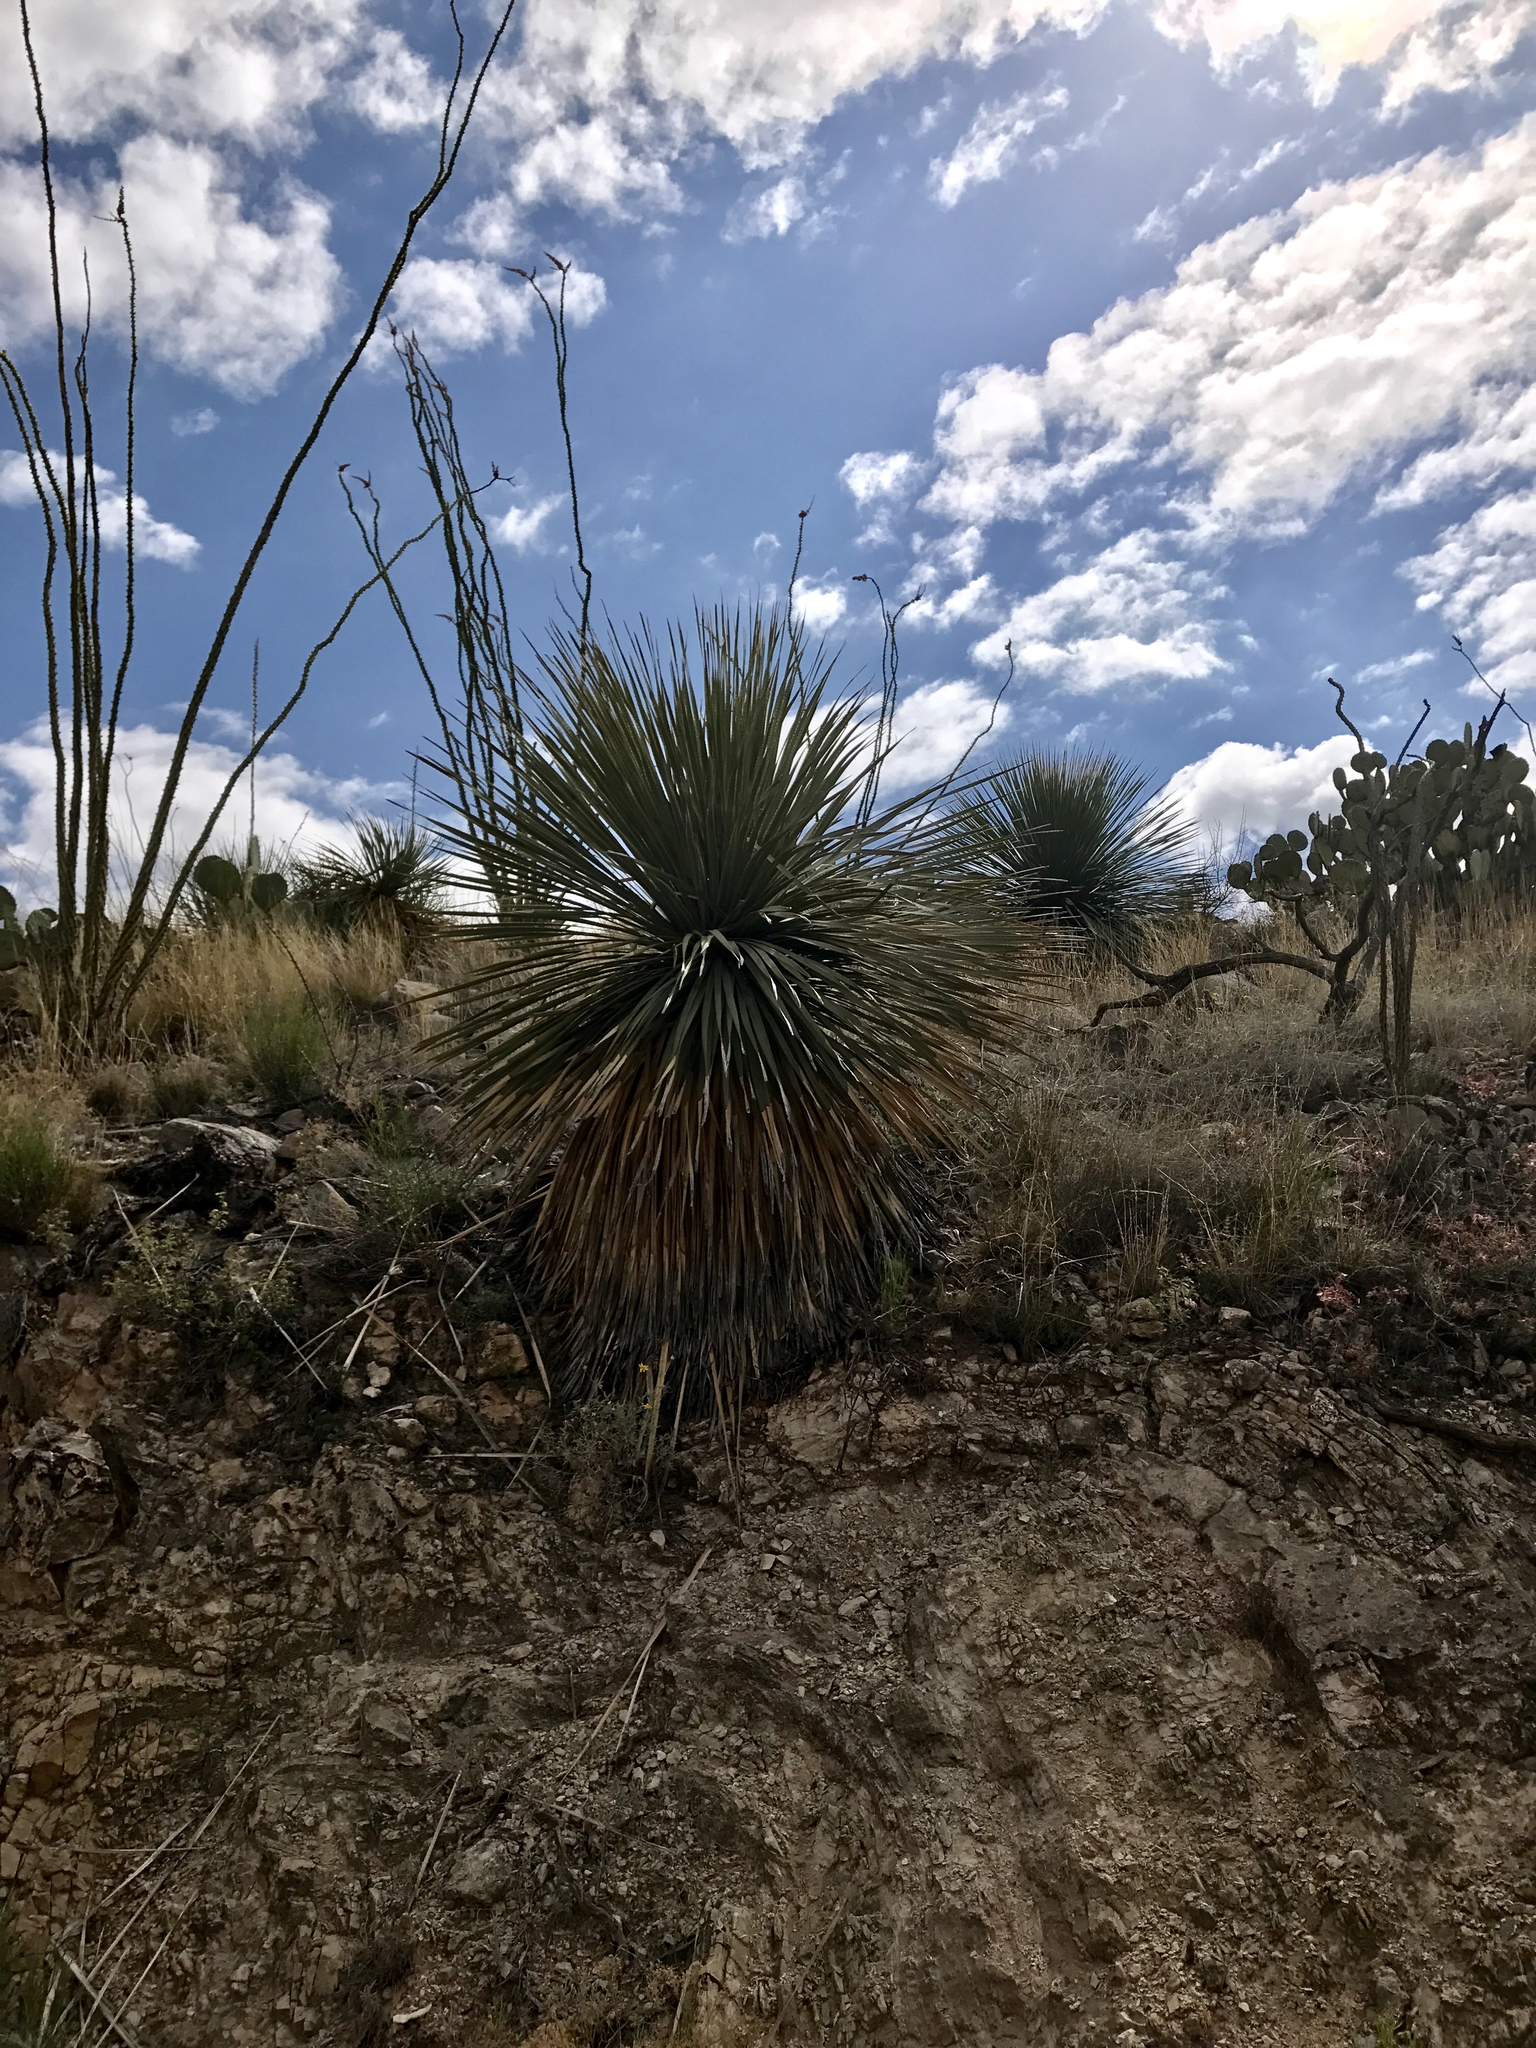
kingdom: Plantae
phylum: Tracheophyta
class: Liliopsida
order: Asparagales
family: Asparagaceae
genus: Yucca
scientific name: Yucca elata
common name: Palmella
